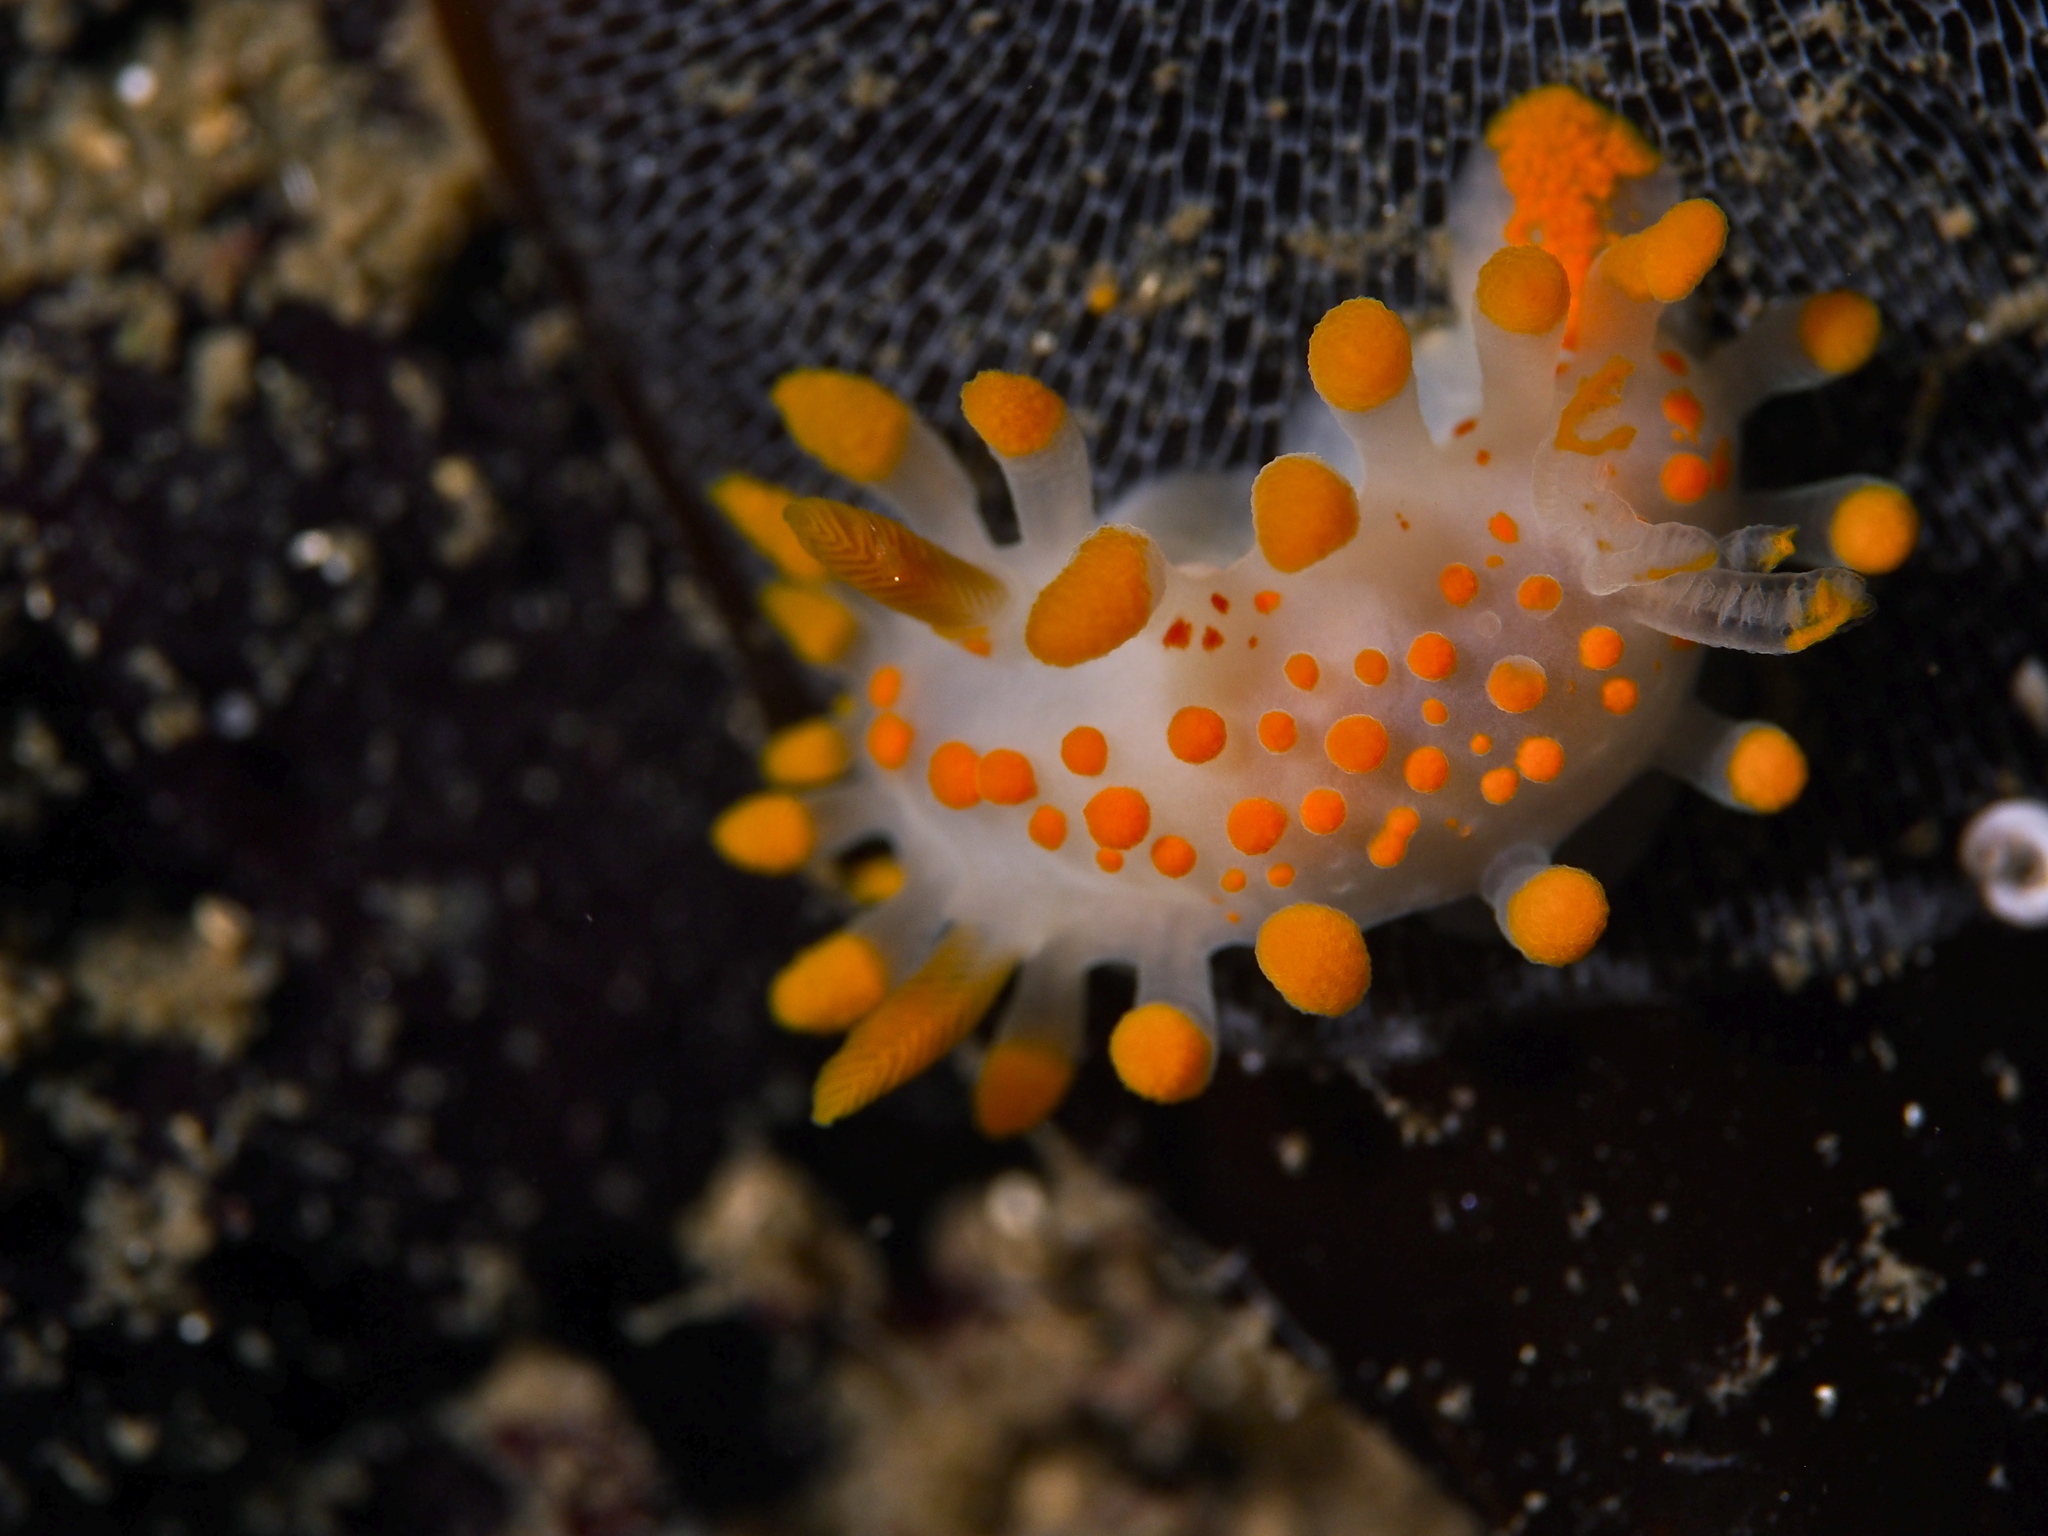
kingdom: Animalia
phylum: Mollusca
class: Gastropoda
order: Nudibranchia
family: Polyceridae
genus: Limacia
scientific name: Limacia clavigera
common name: Orange-clubbed sea slug
